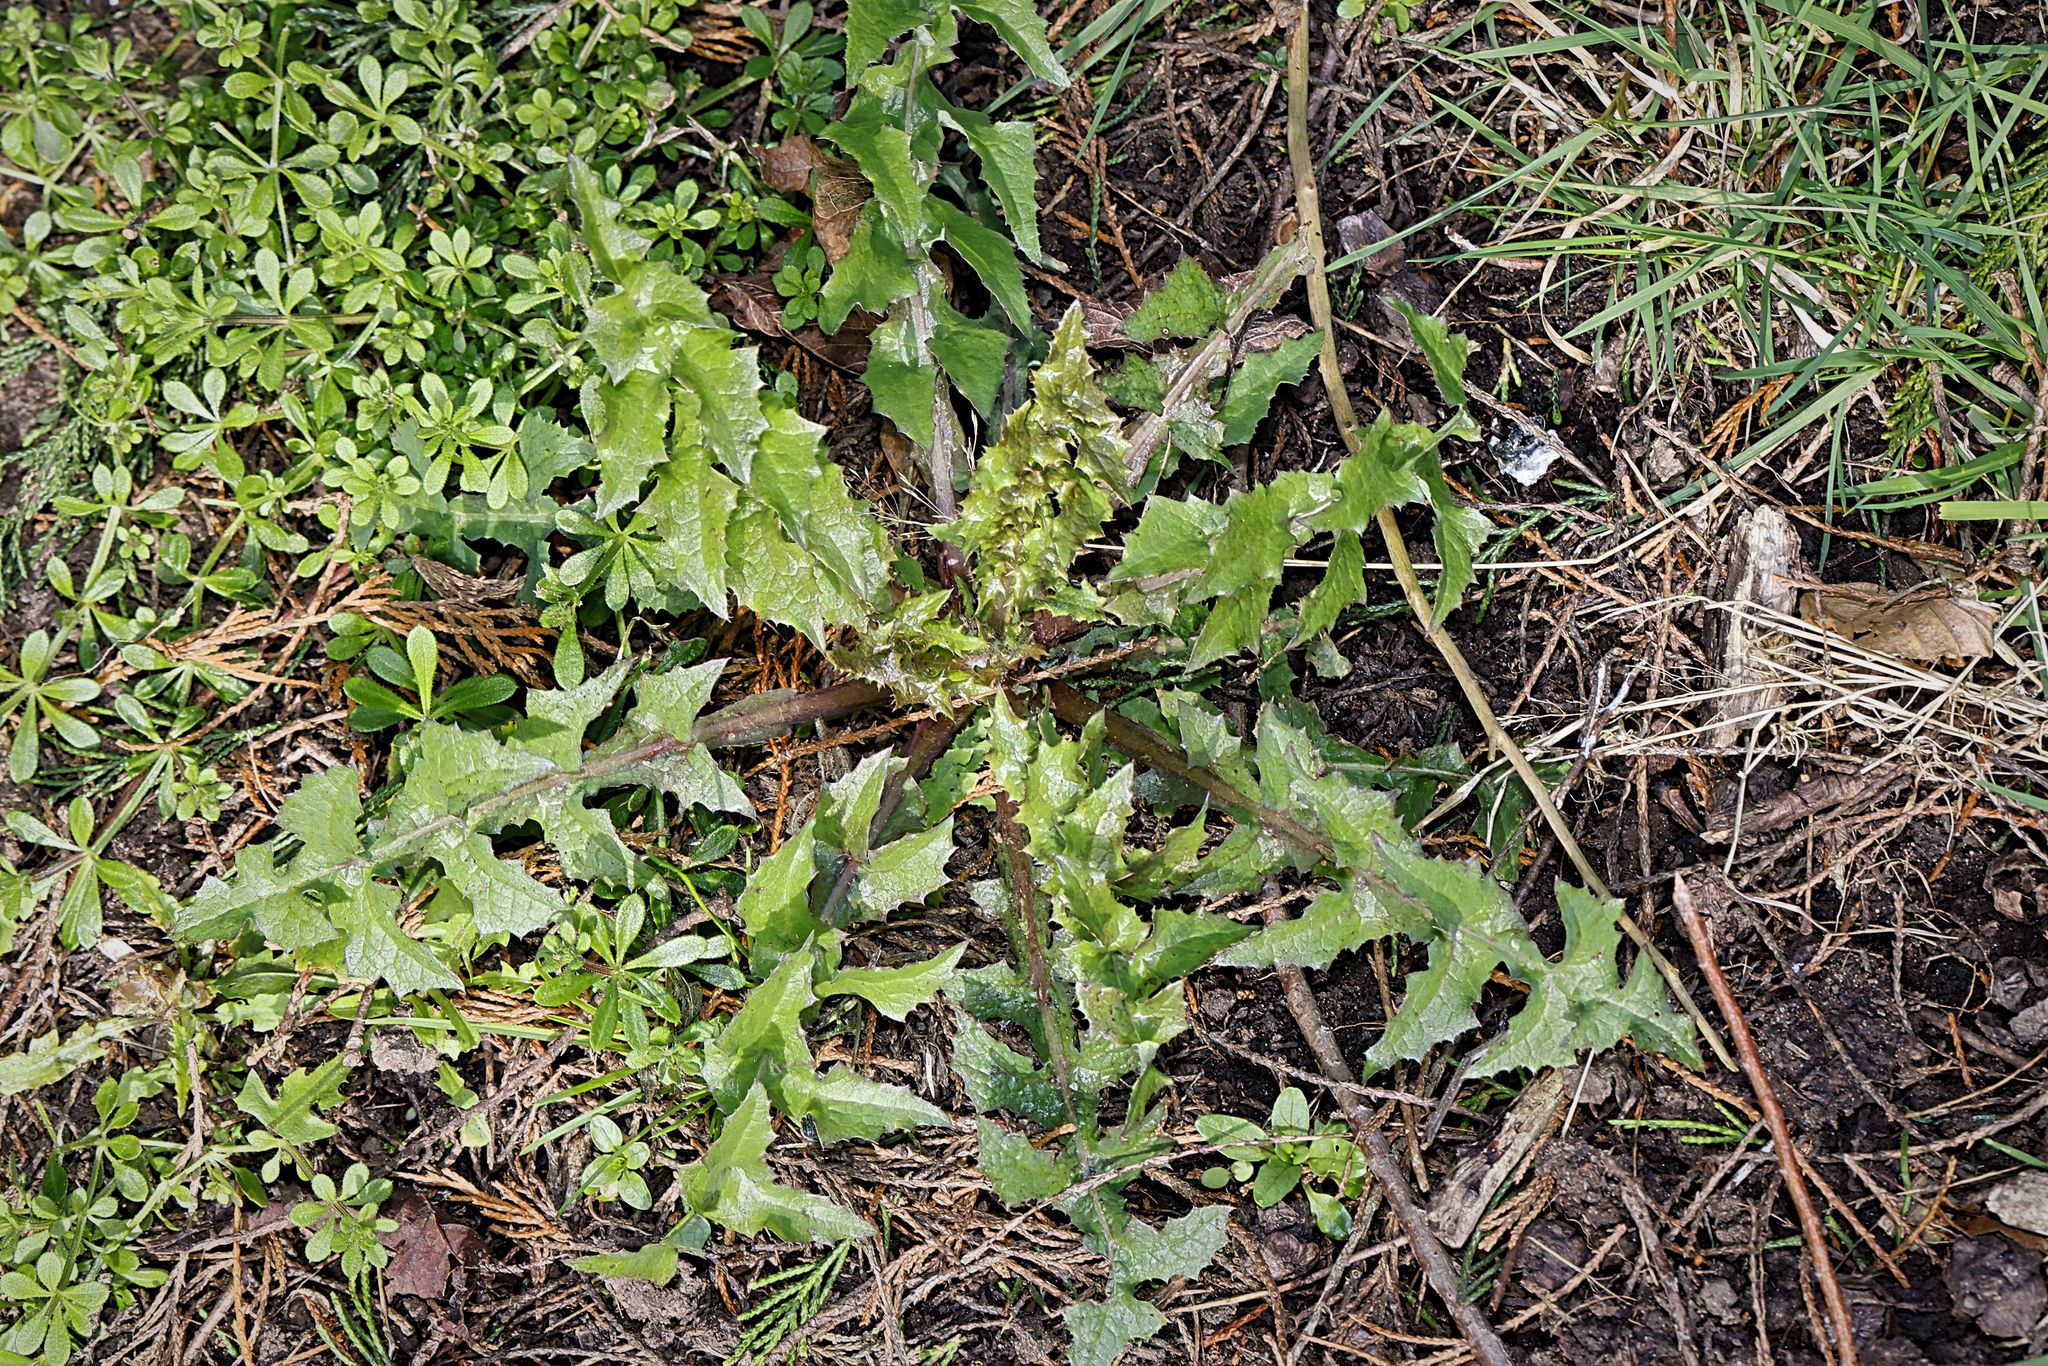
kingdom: Plantae
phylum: Tracheophyta
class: Magnoliopsida
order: Asterales
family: Asteraceae
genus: Sonchus
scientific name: Sonchus oleraceus
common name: Common sowthistle
